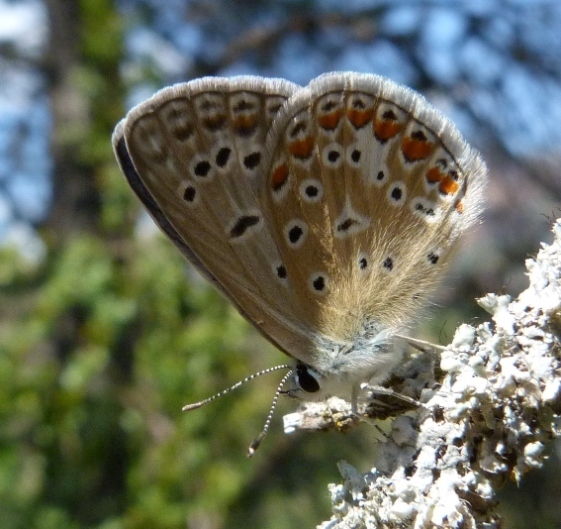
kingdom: Animalia
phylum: Arthropoda
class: Insecta
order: Lepidoptera
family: Lycaenidae
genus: Polyommatus
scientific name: Polyommatus icarus
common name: Common blue
